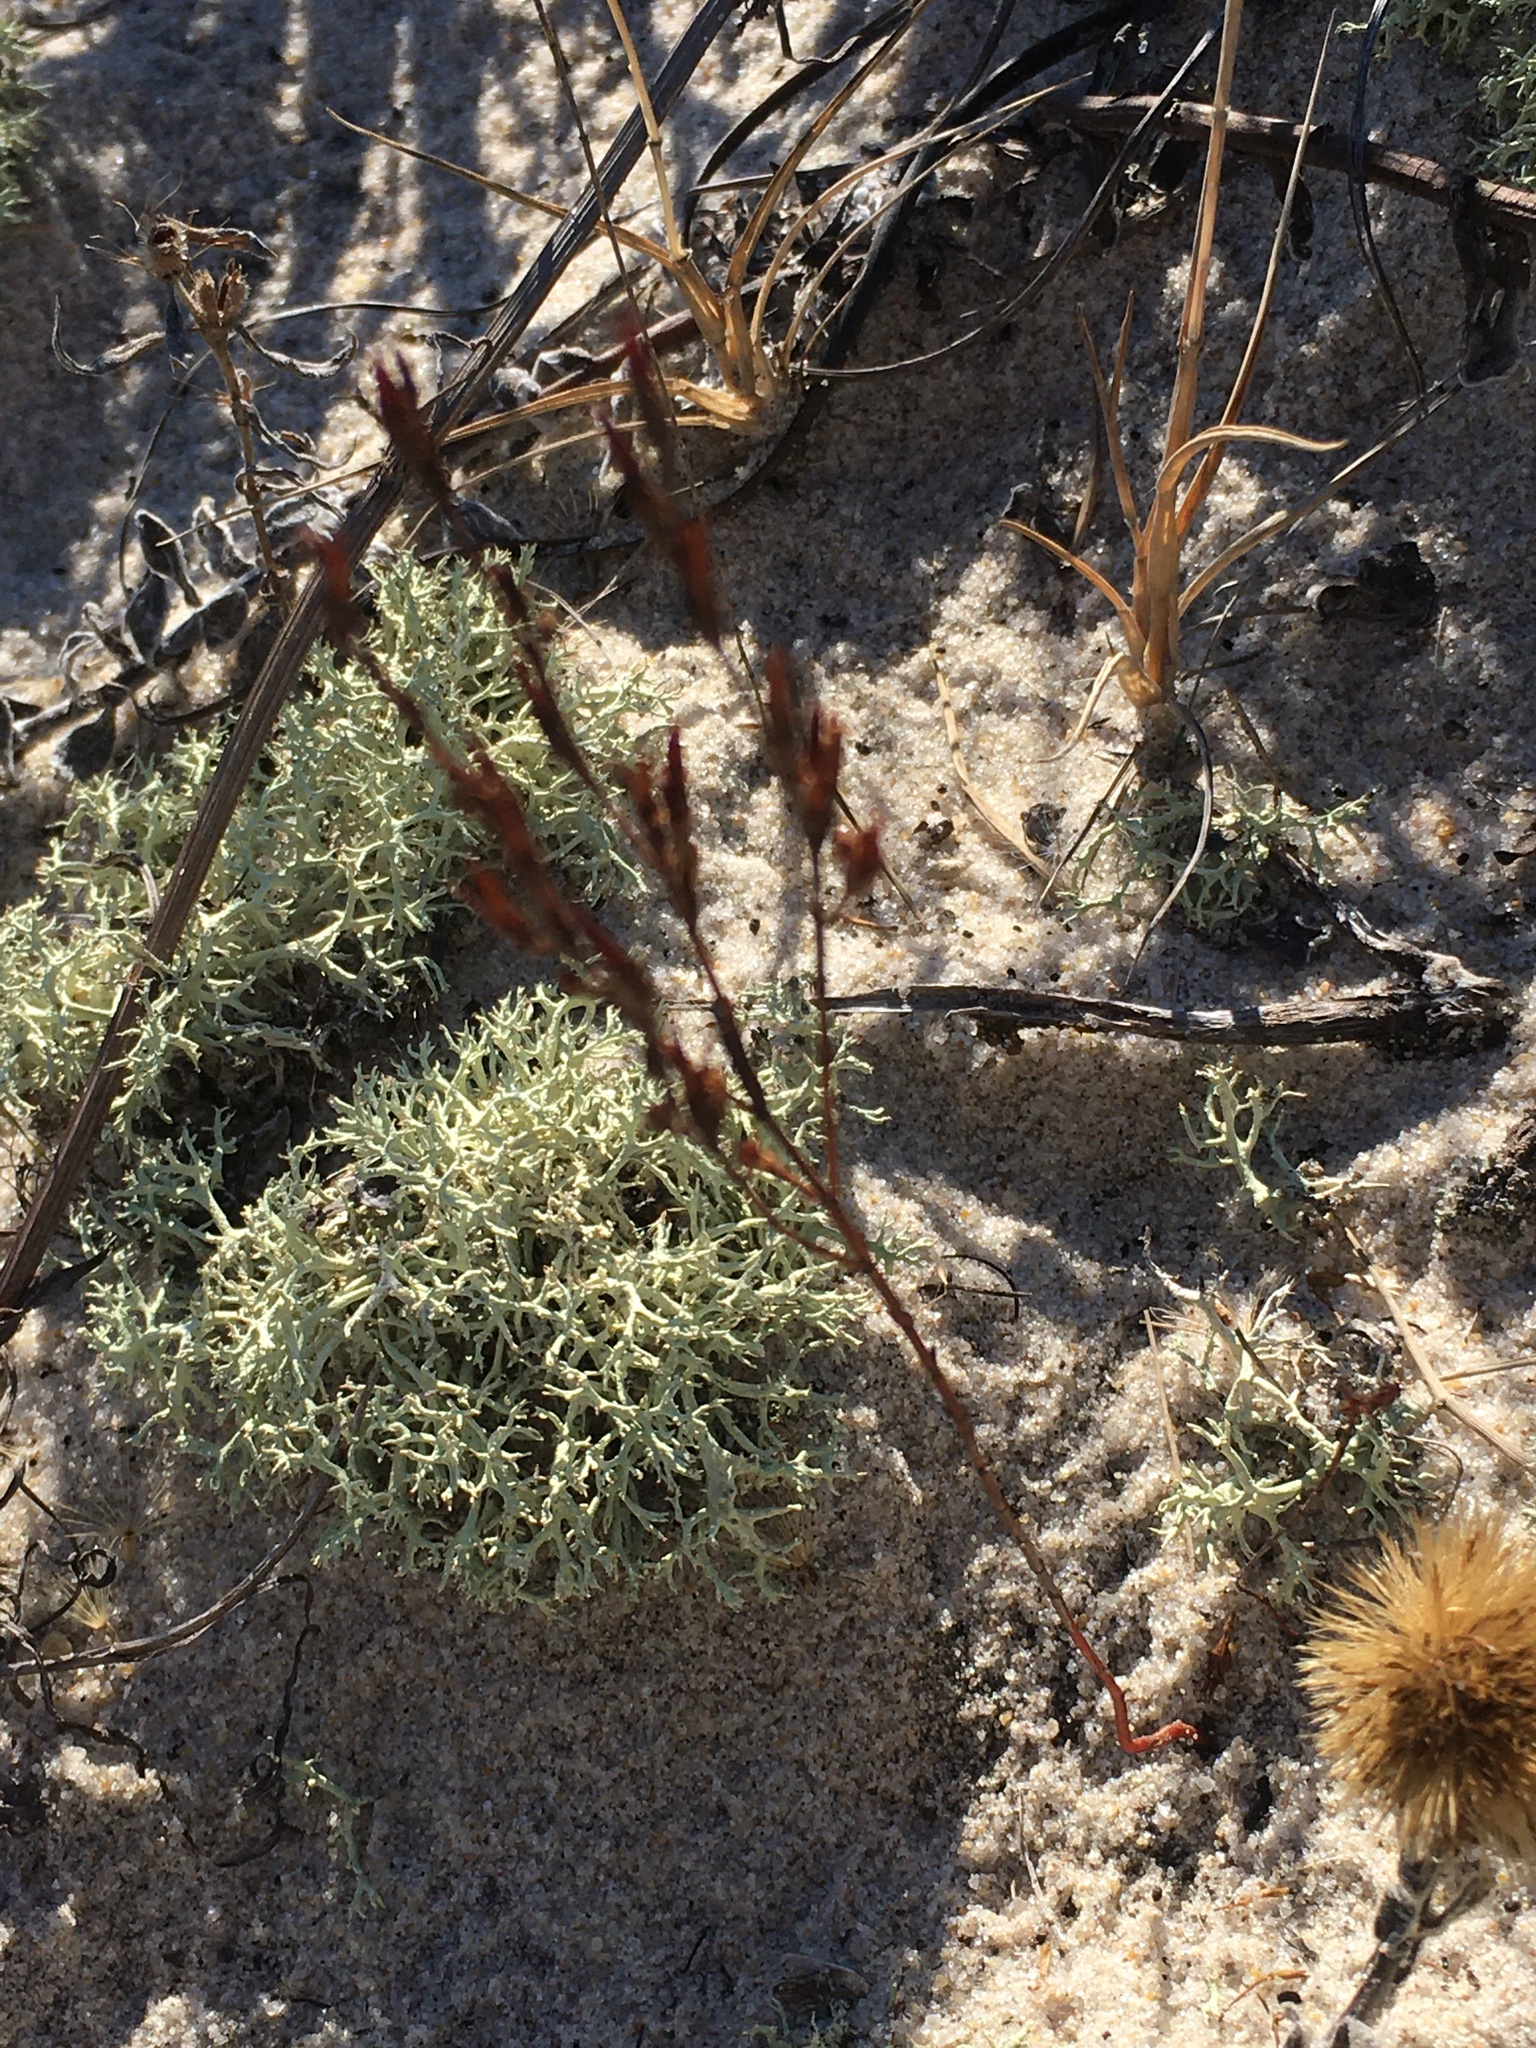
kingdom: Plantae
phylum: Tracheophyta
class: Magnoliopsida
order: Malpighiales
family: Hypericaceae
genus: Hypericum
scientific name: Hypericum gentianoides
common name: Gentian-leaved st. john's-wort
